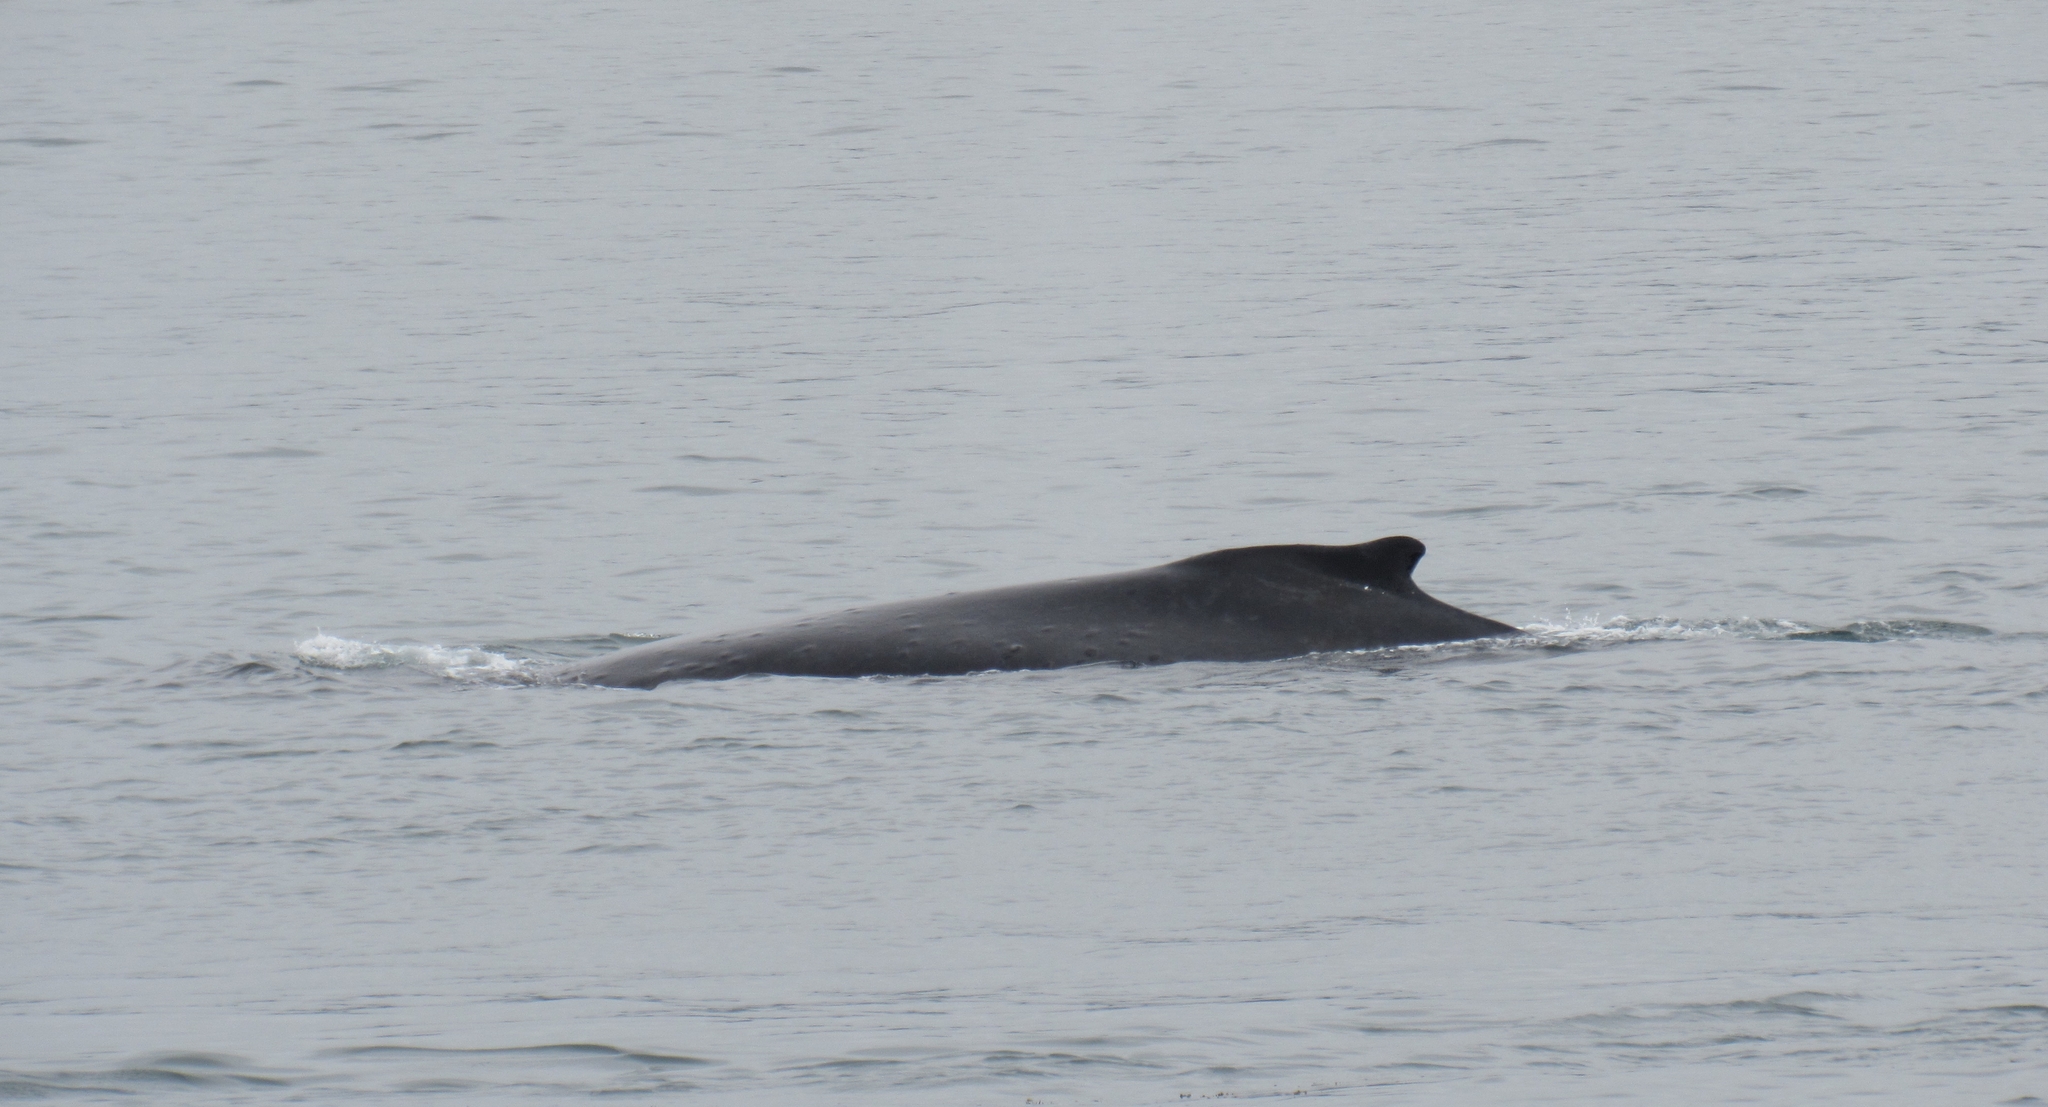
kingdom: Animalia
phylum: Chordata
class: Mammalia
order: Cetacea
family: Balaenopteridae
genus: Megaptera
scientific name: Megaptera novaeangliae
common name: Humpback whale
